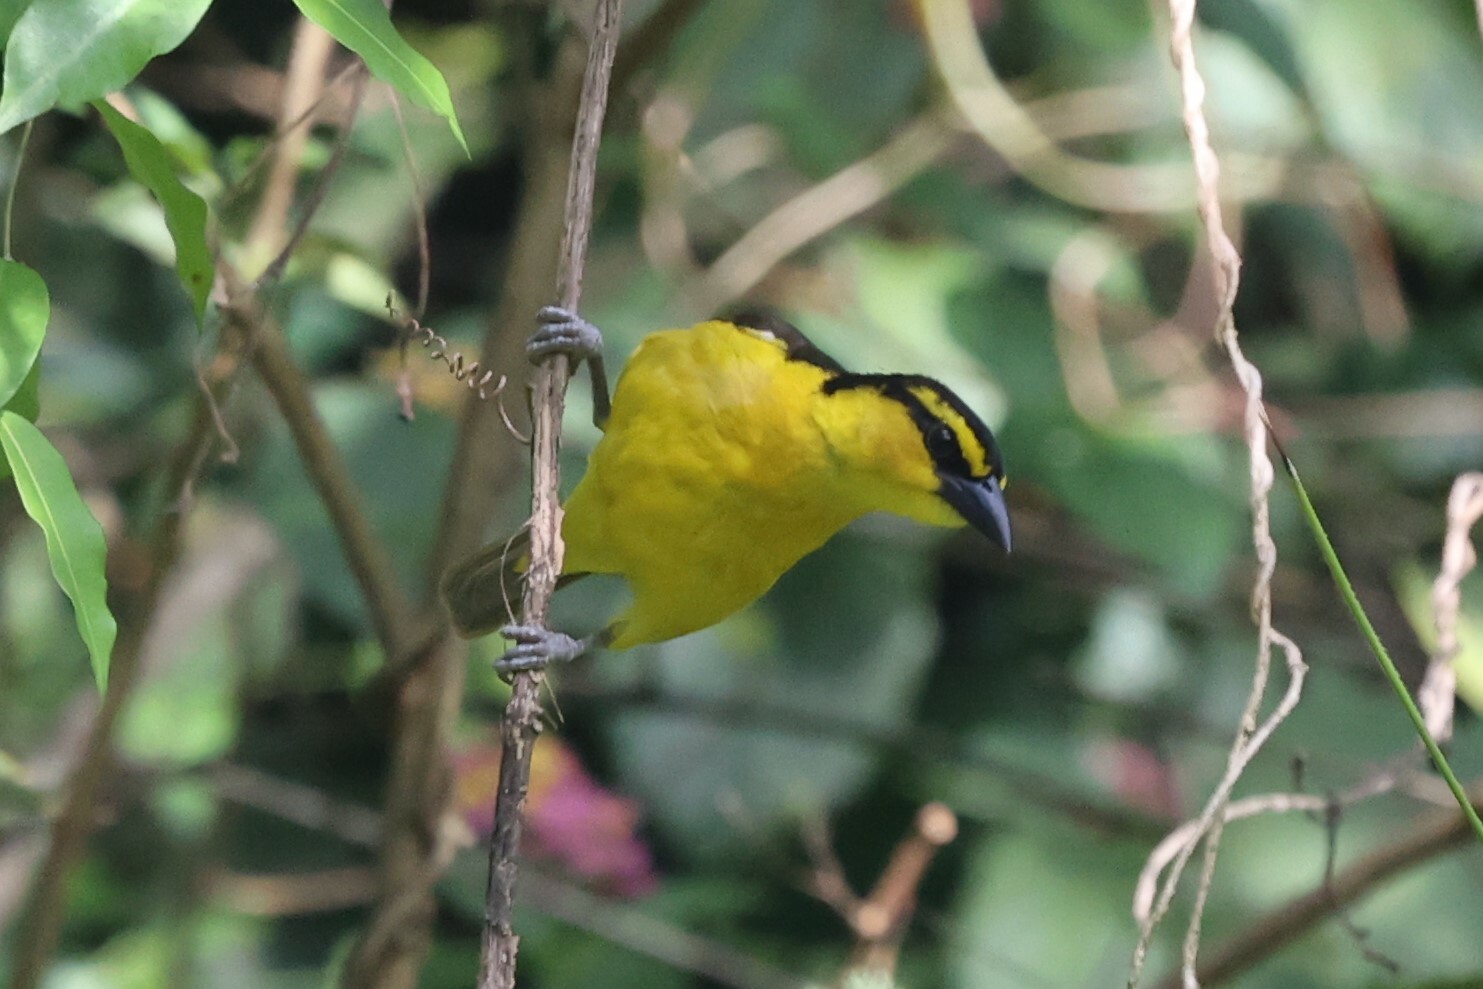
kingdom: Animalia
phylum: Chordata
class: Aves
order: Passeriformes
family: Ploceidae
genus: Ploceus
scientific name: Ploceus nigricollis
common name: Black-necked weaver
